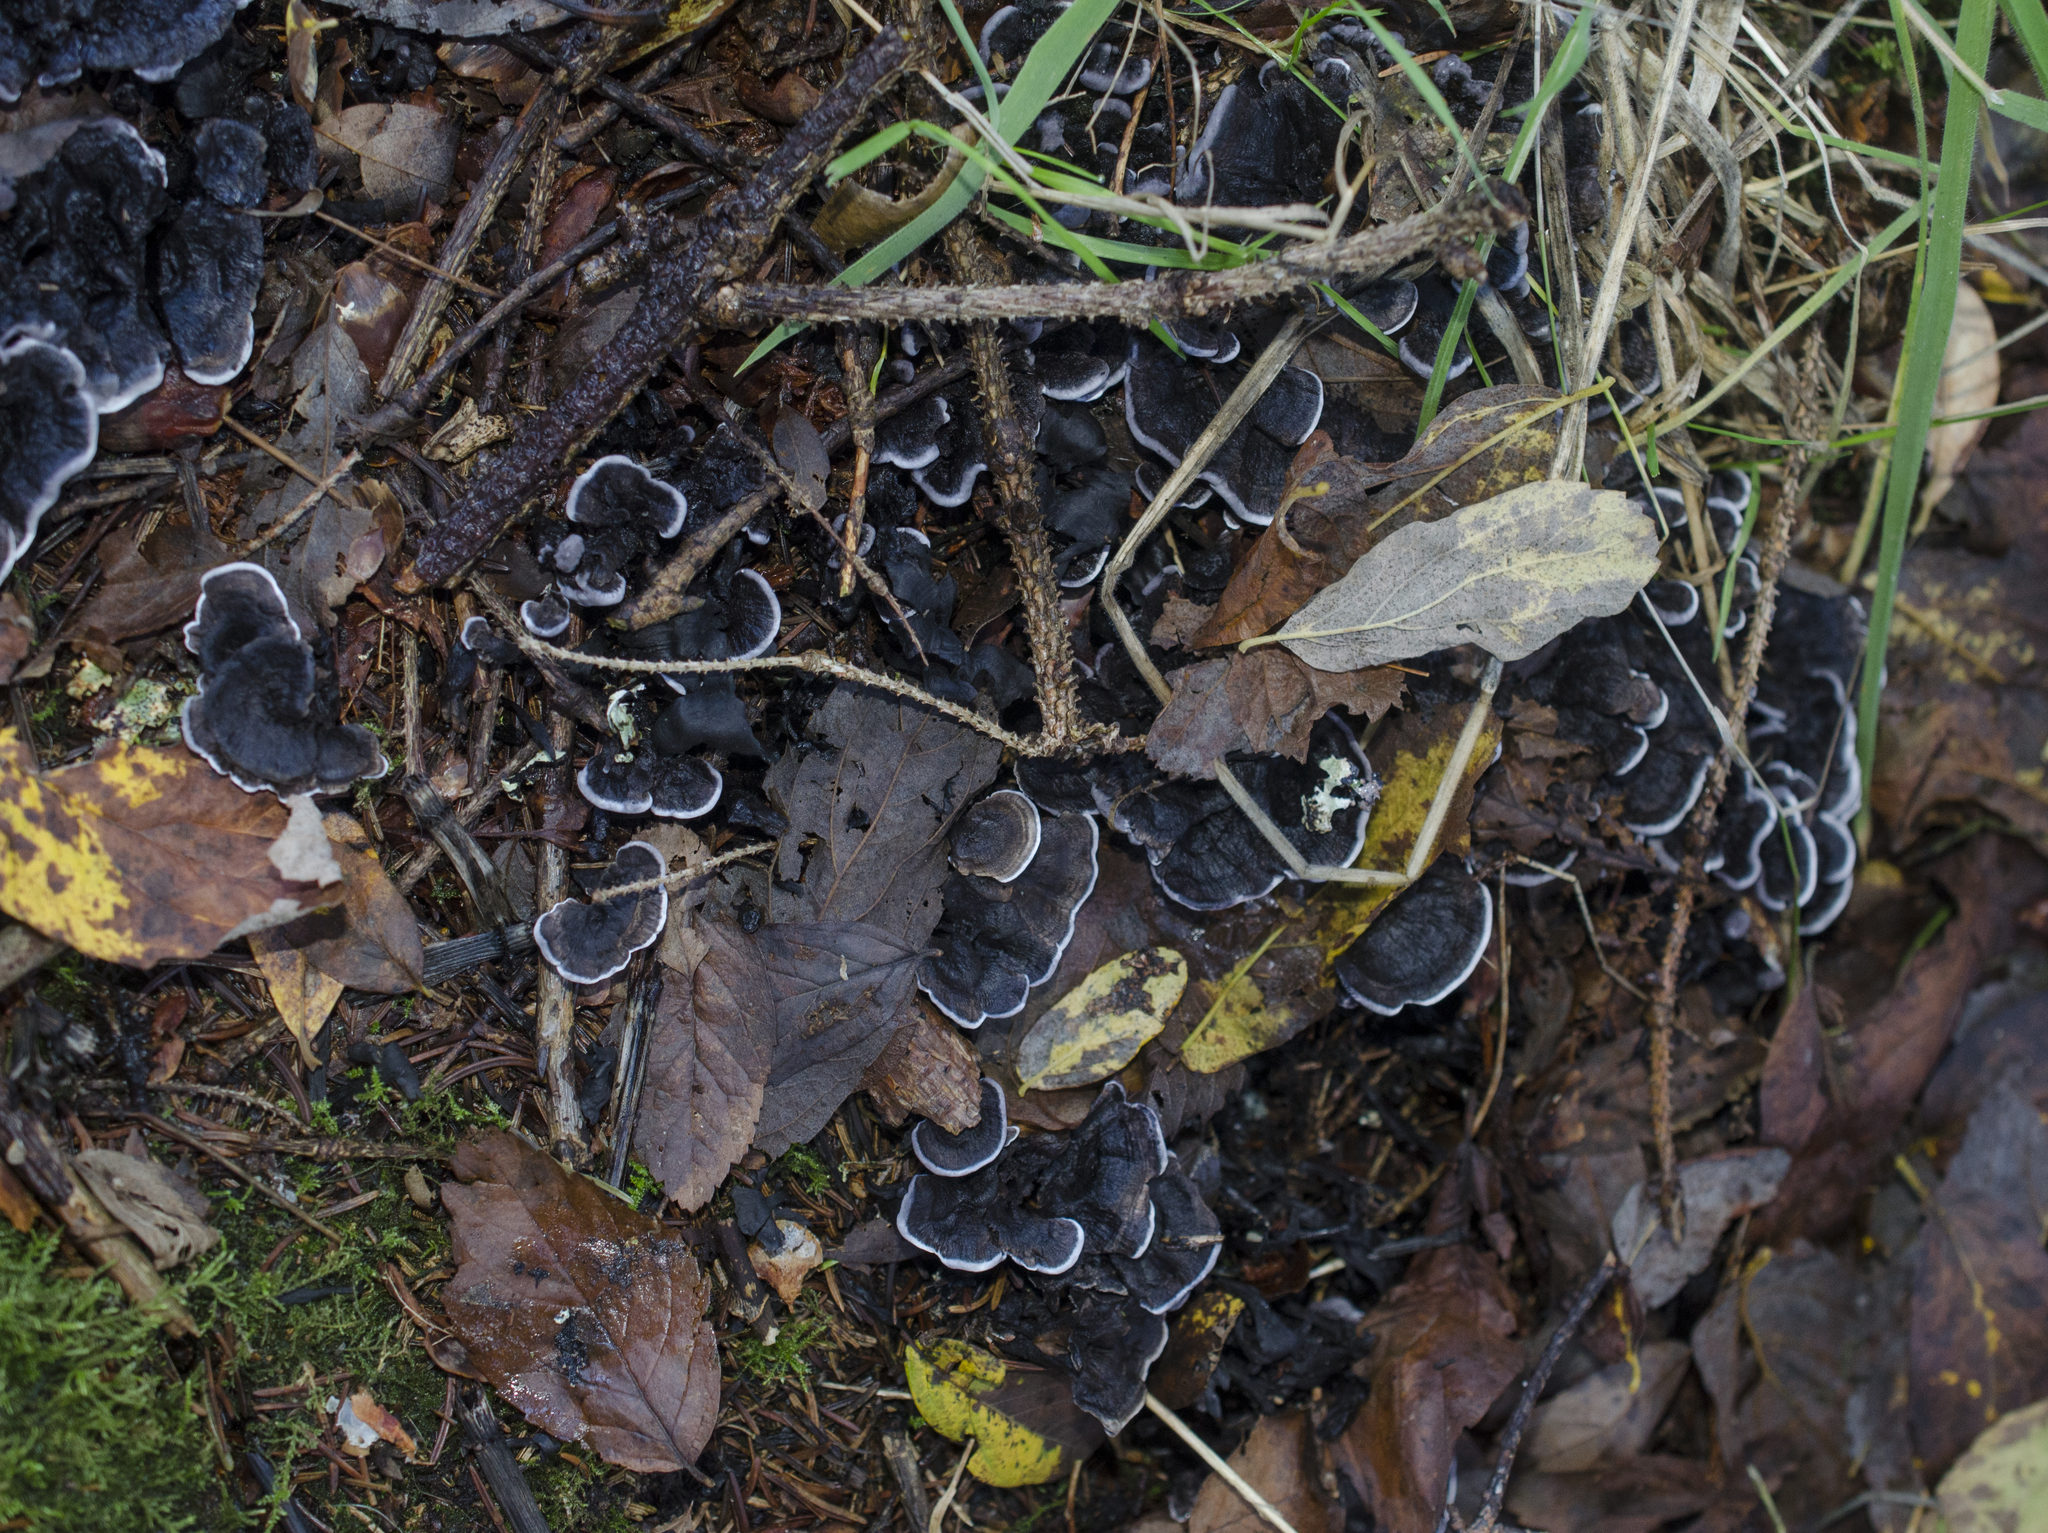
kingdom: Fungi
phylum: Basidiomycota
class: Agaricomycetes
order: Thelephorales
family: Thelephoraceae
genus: Phellodon
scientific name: Phellodon atratus
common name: Blue-black tooth
